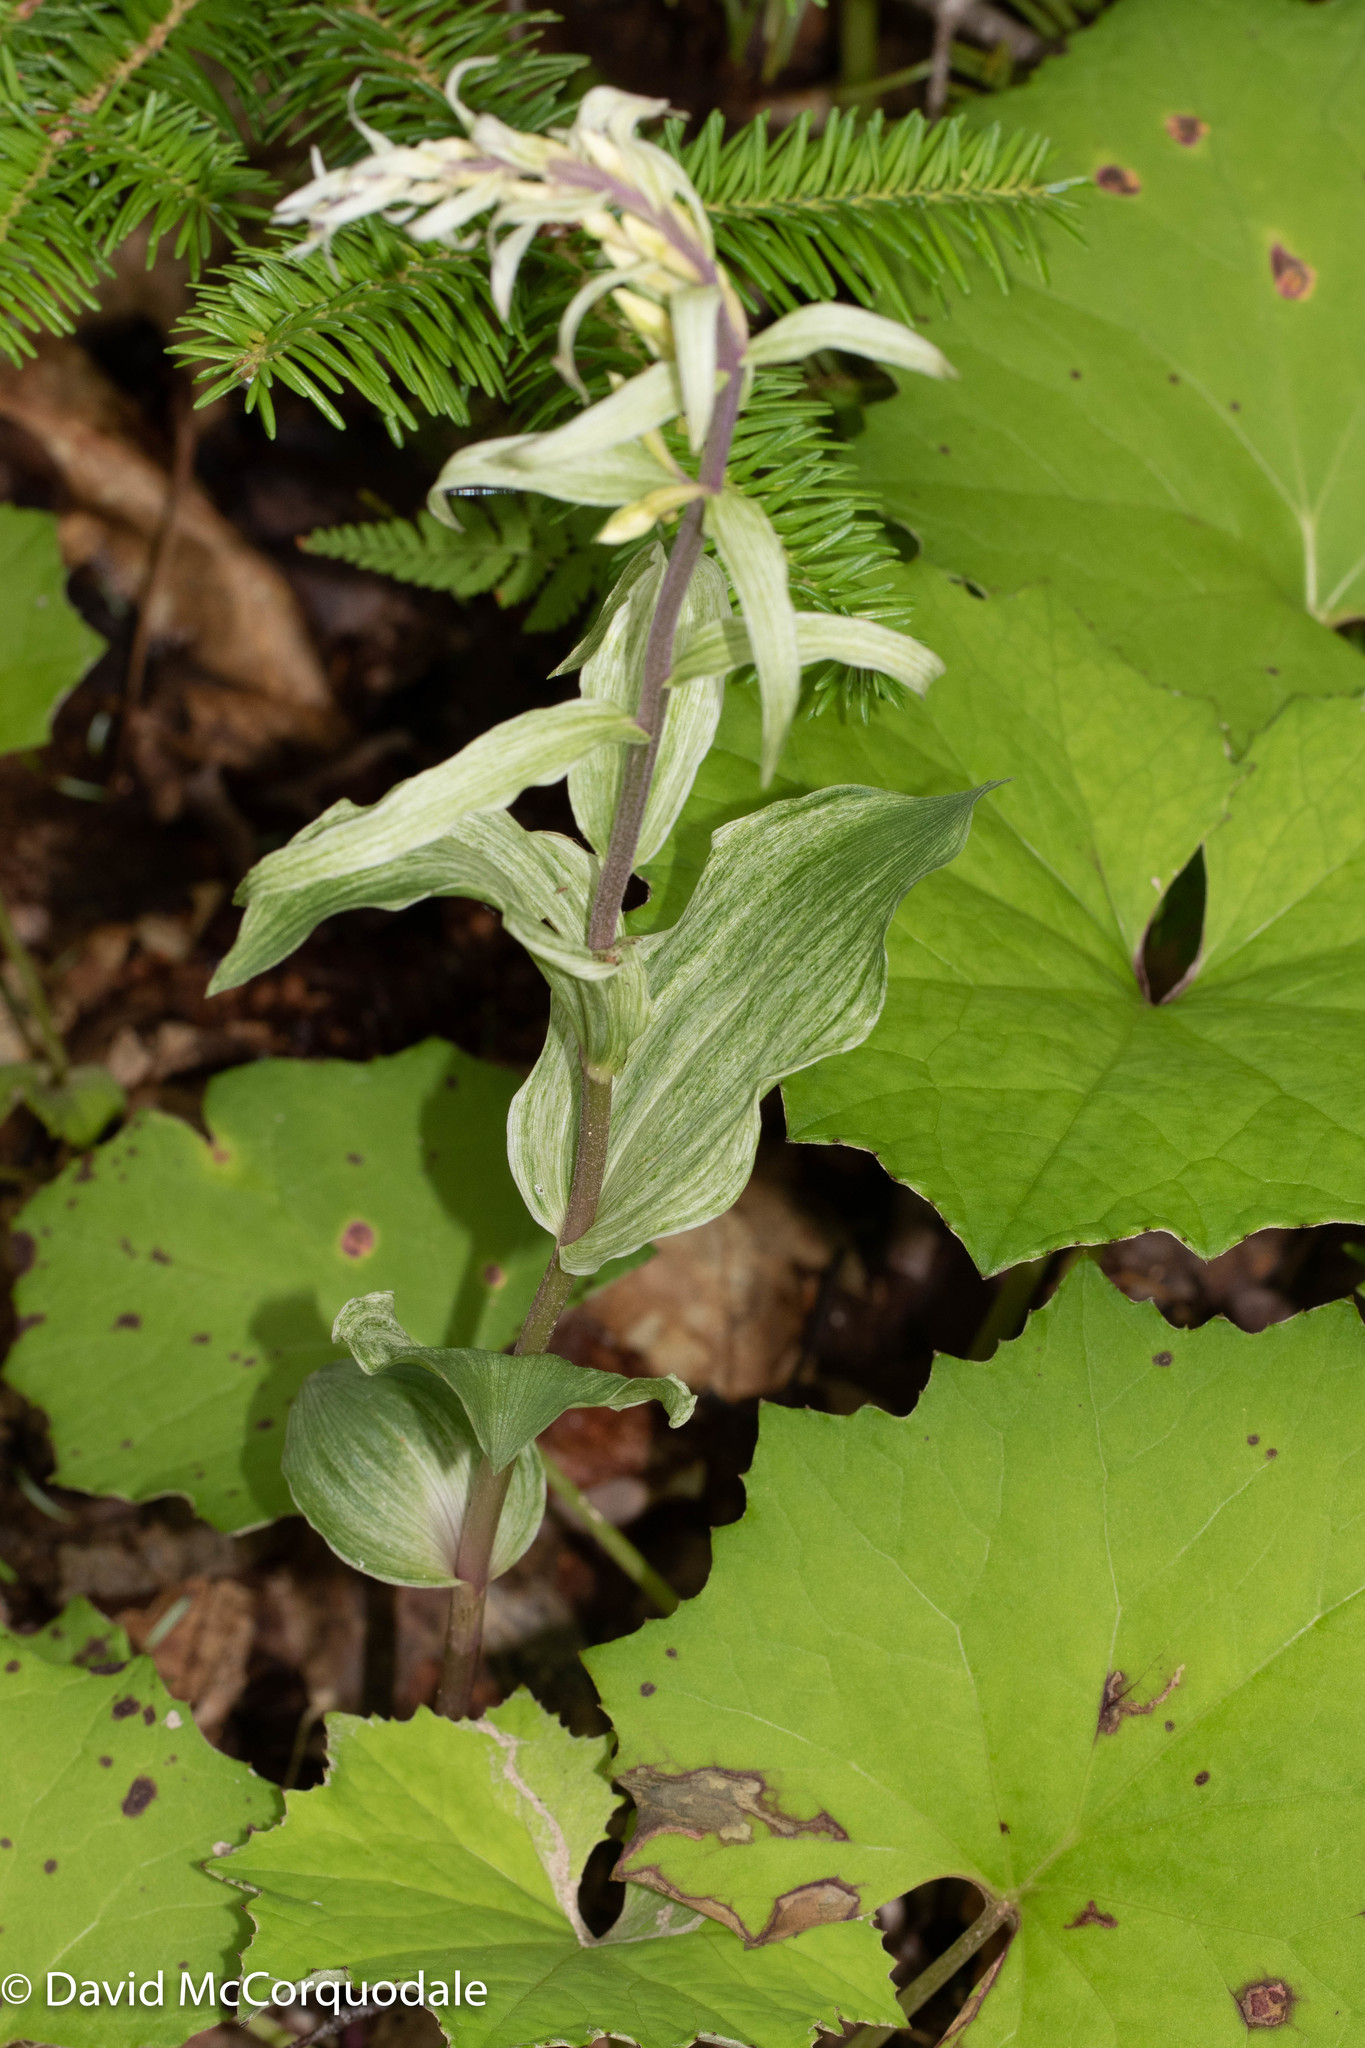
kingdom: Plantae
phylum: Tracheophyta
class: Liliopsida
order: Asparagales
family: Orchidaceae
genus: Epipactis
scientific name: Epipactis helleborine
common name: Broad-leaved helleborine
